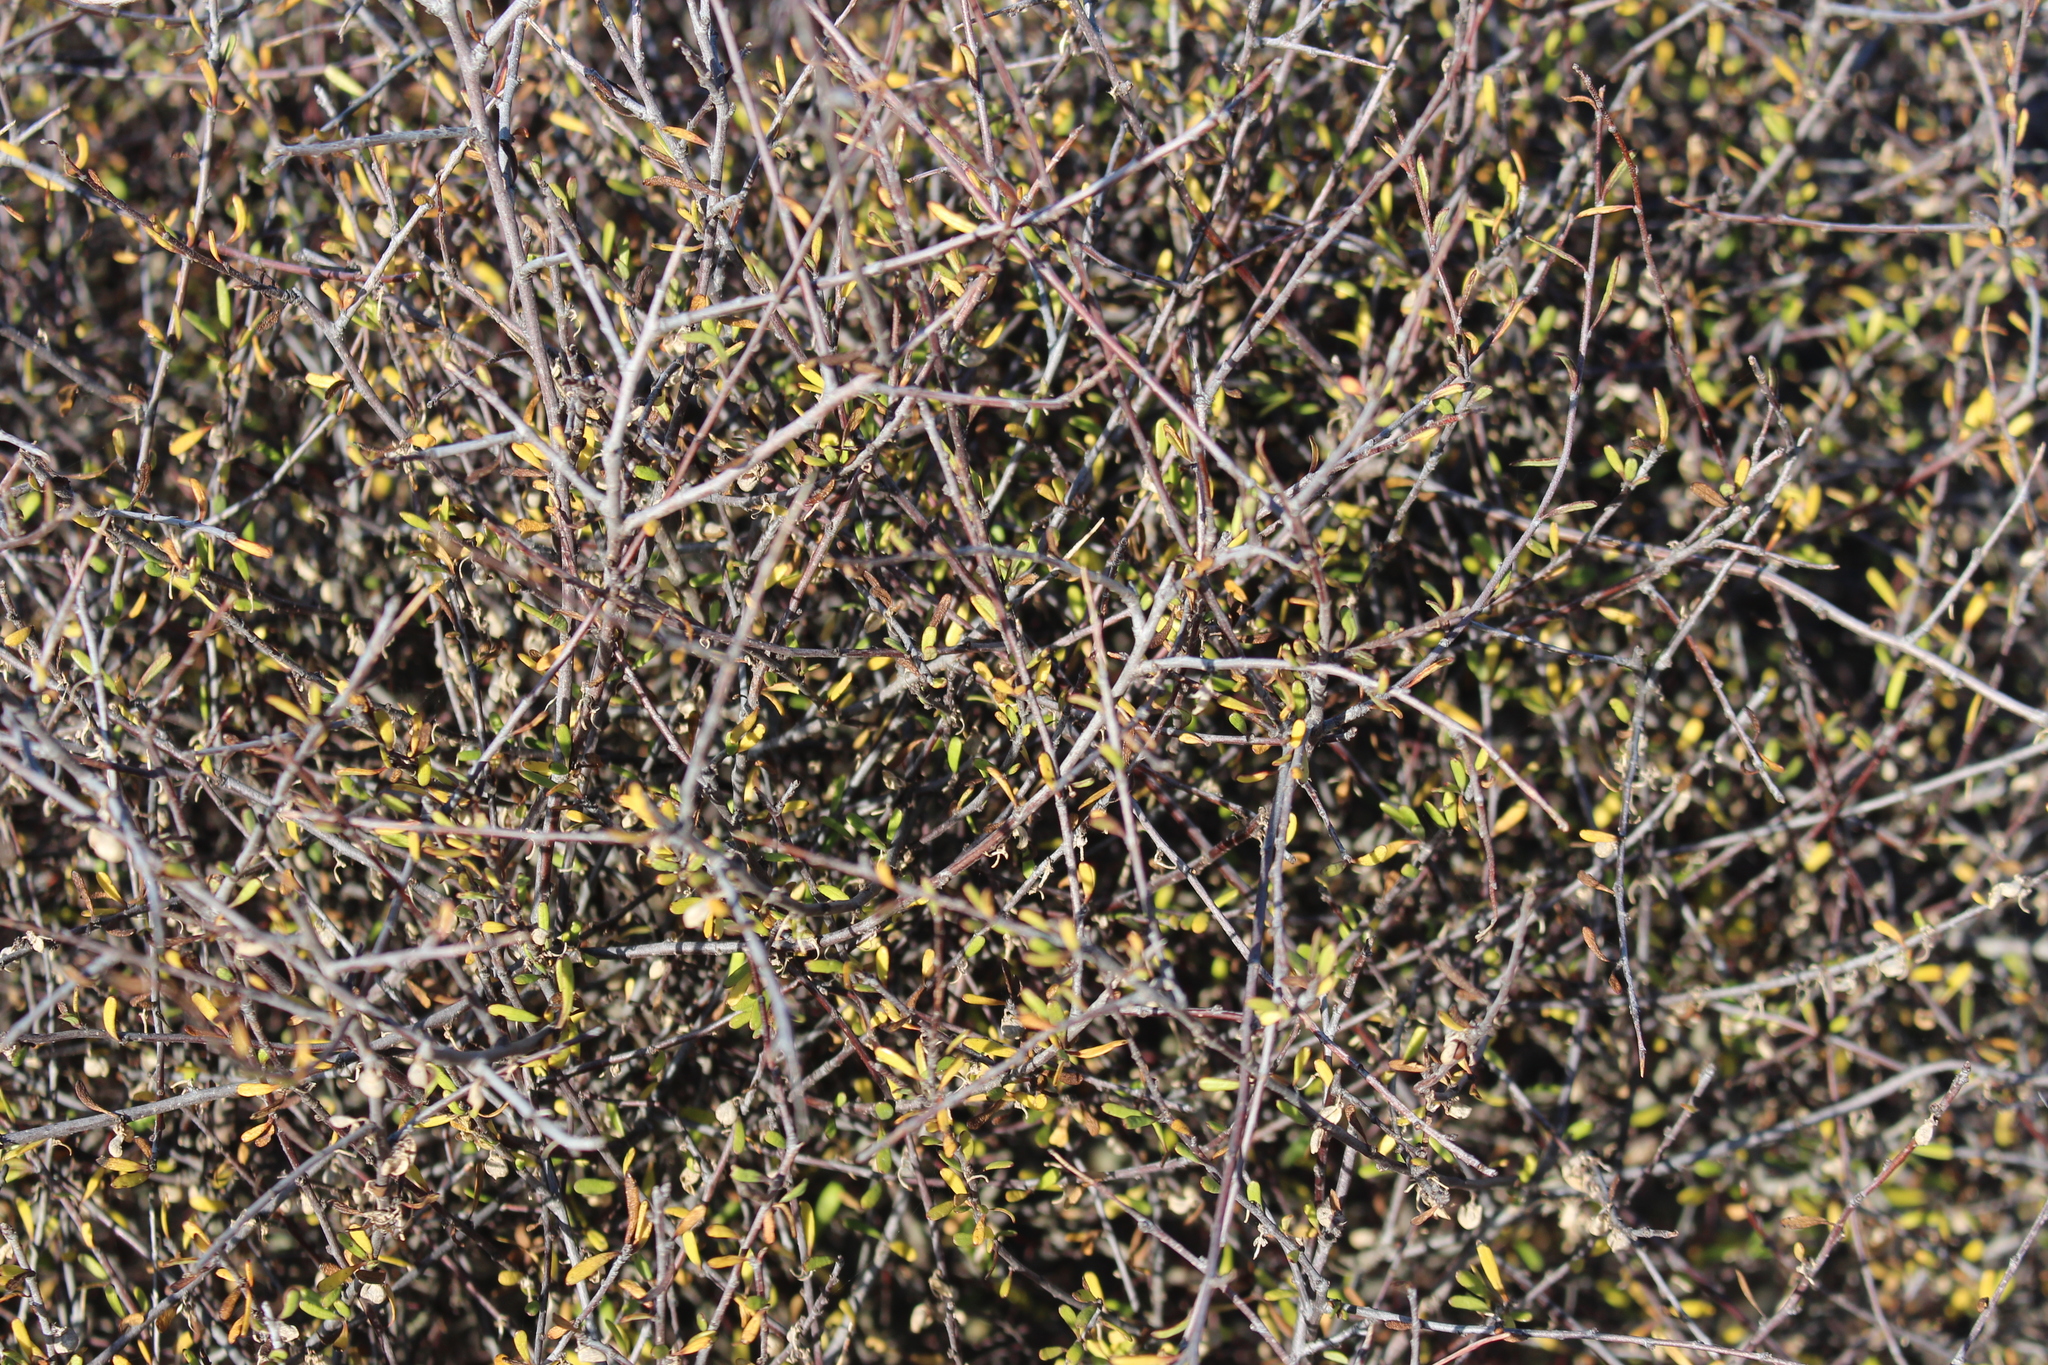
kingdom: Plantae
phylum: Tracheophyta
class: Magnoliopsida
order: Malvales
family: Malvaceae
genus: Plagianthus
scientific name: Plagianthus divaricatus
